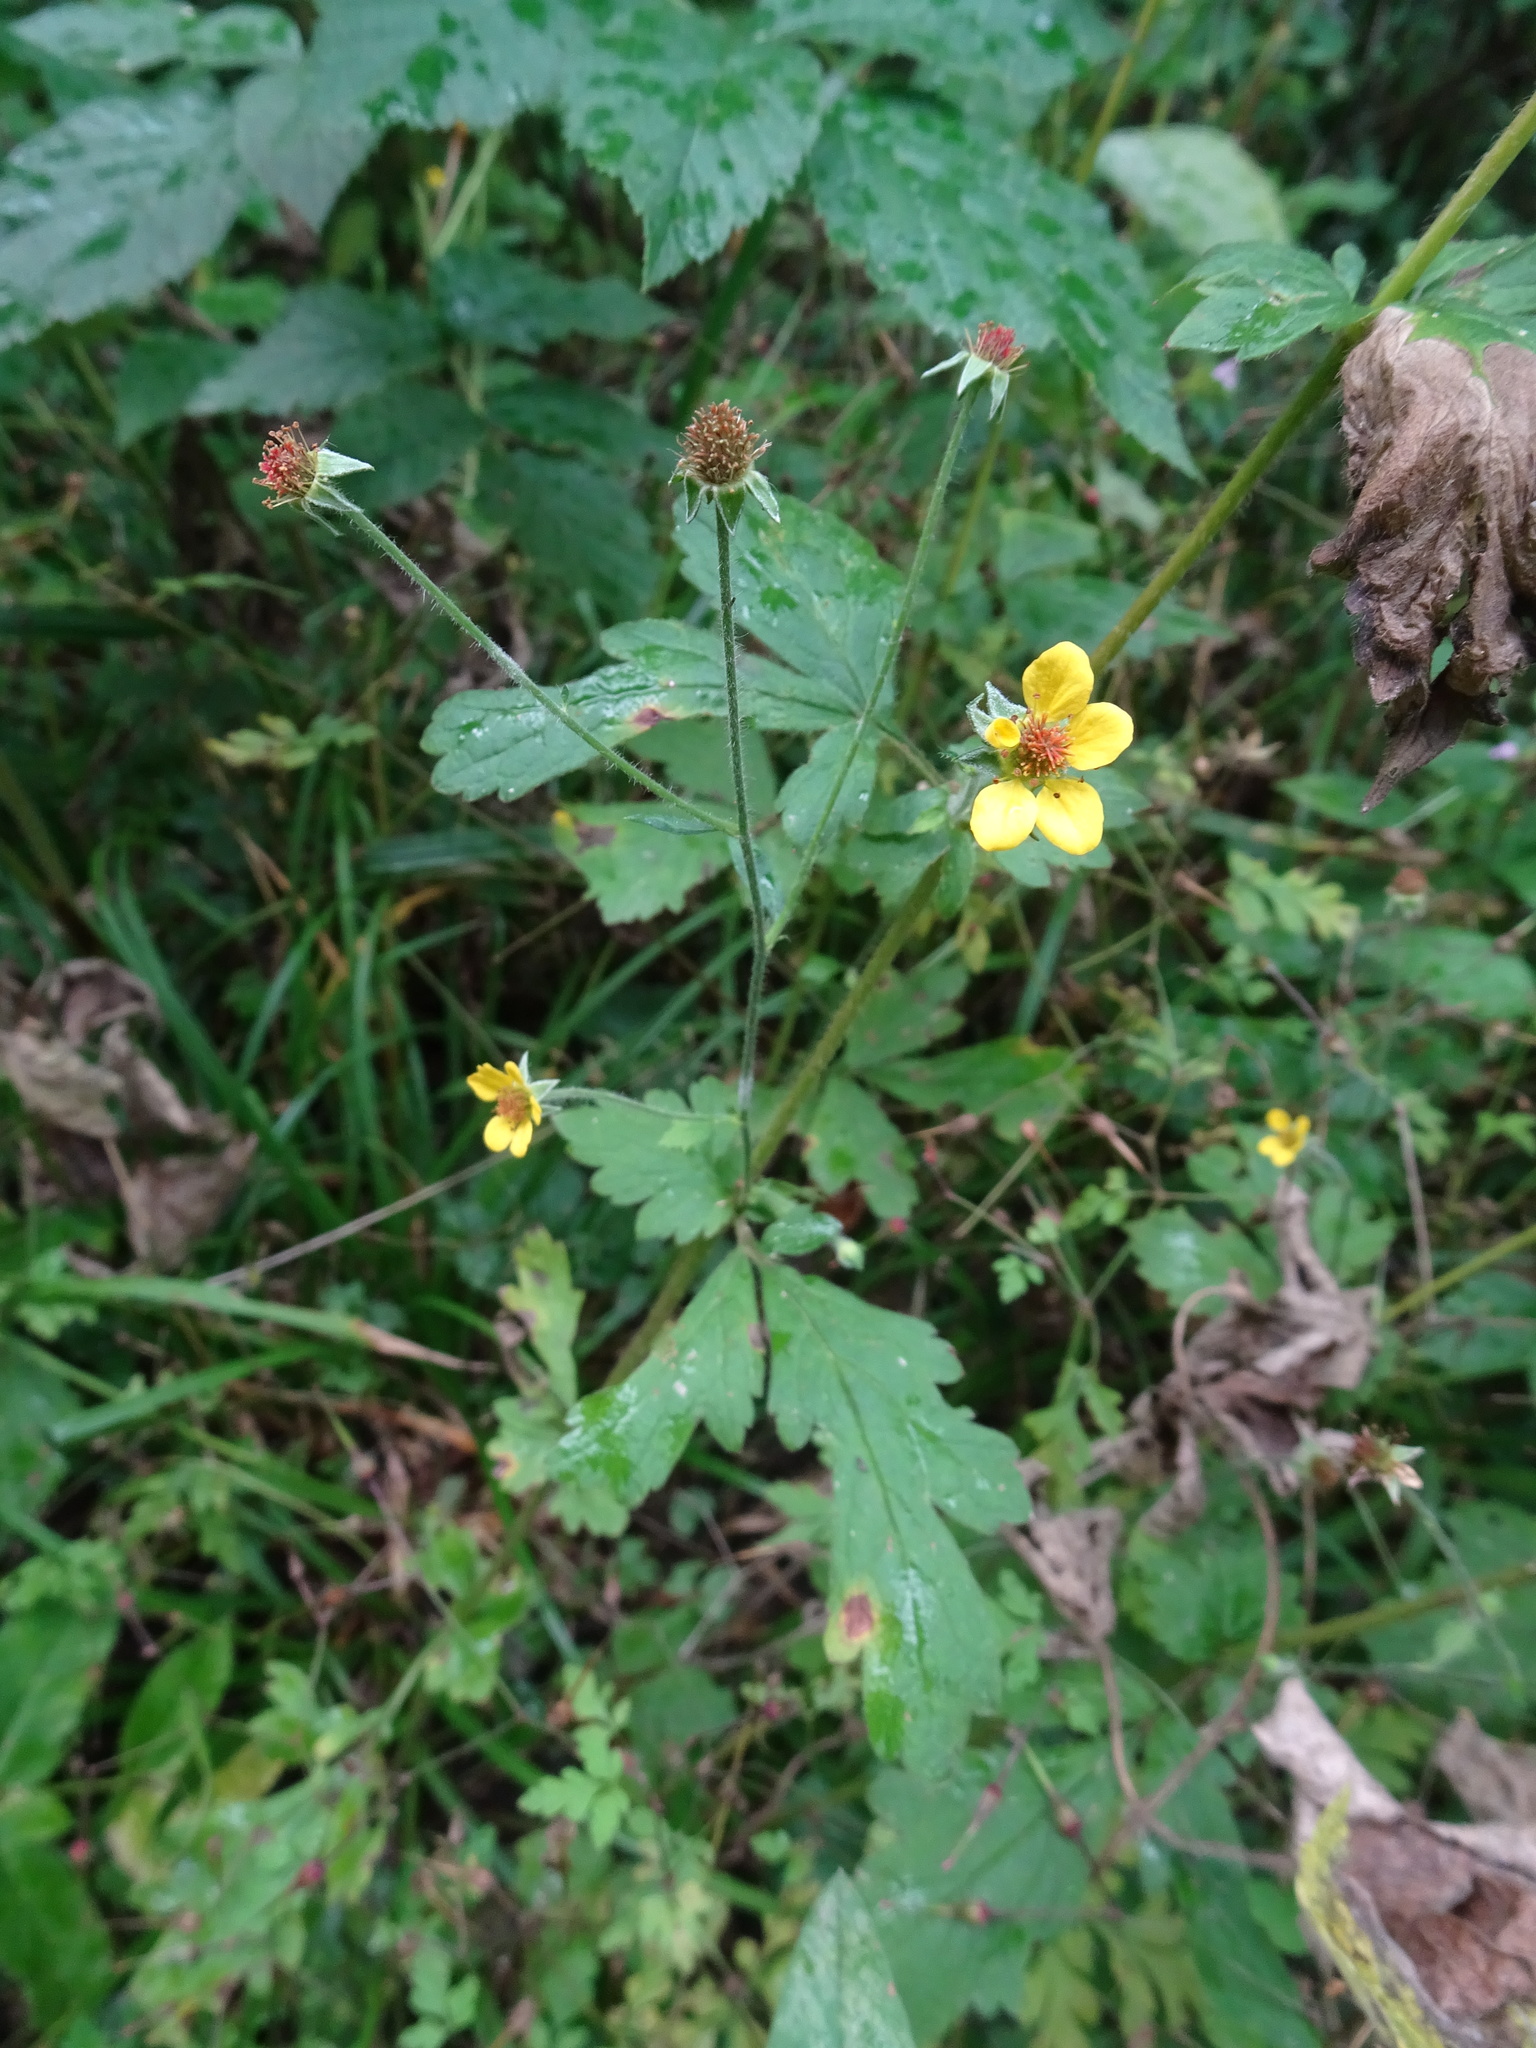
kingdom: Plantae
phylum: Tracheophyta
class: Magnoliopsida
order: Rosales
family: Rosaceae
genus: Geum
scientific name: Geum urbanum
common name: Wood avens
